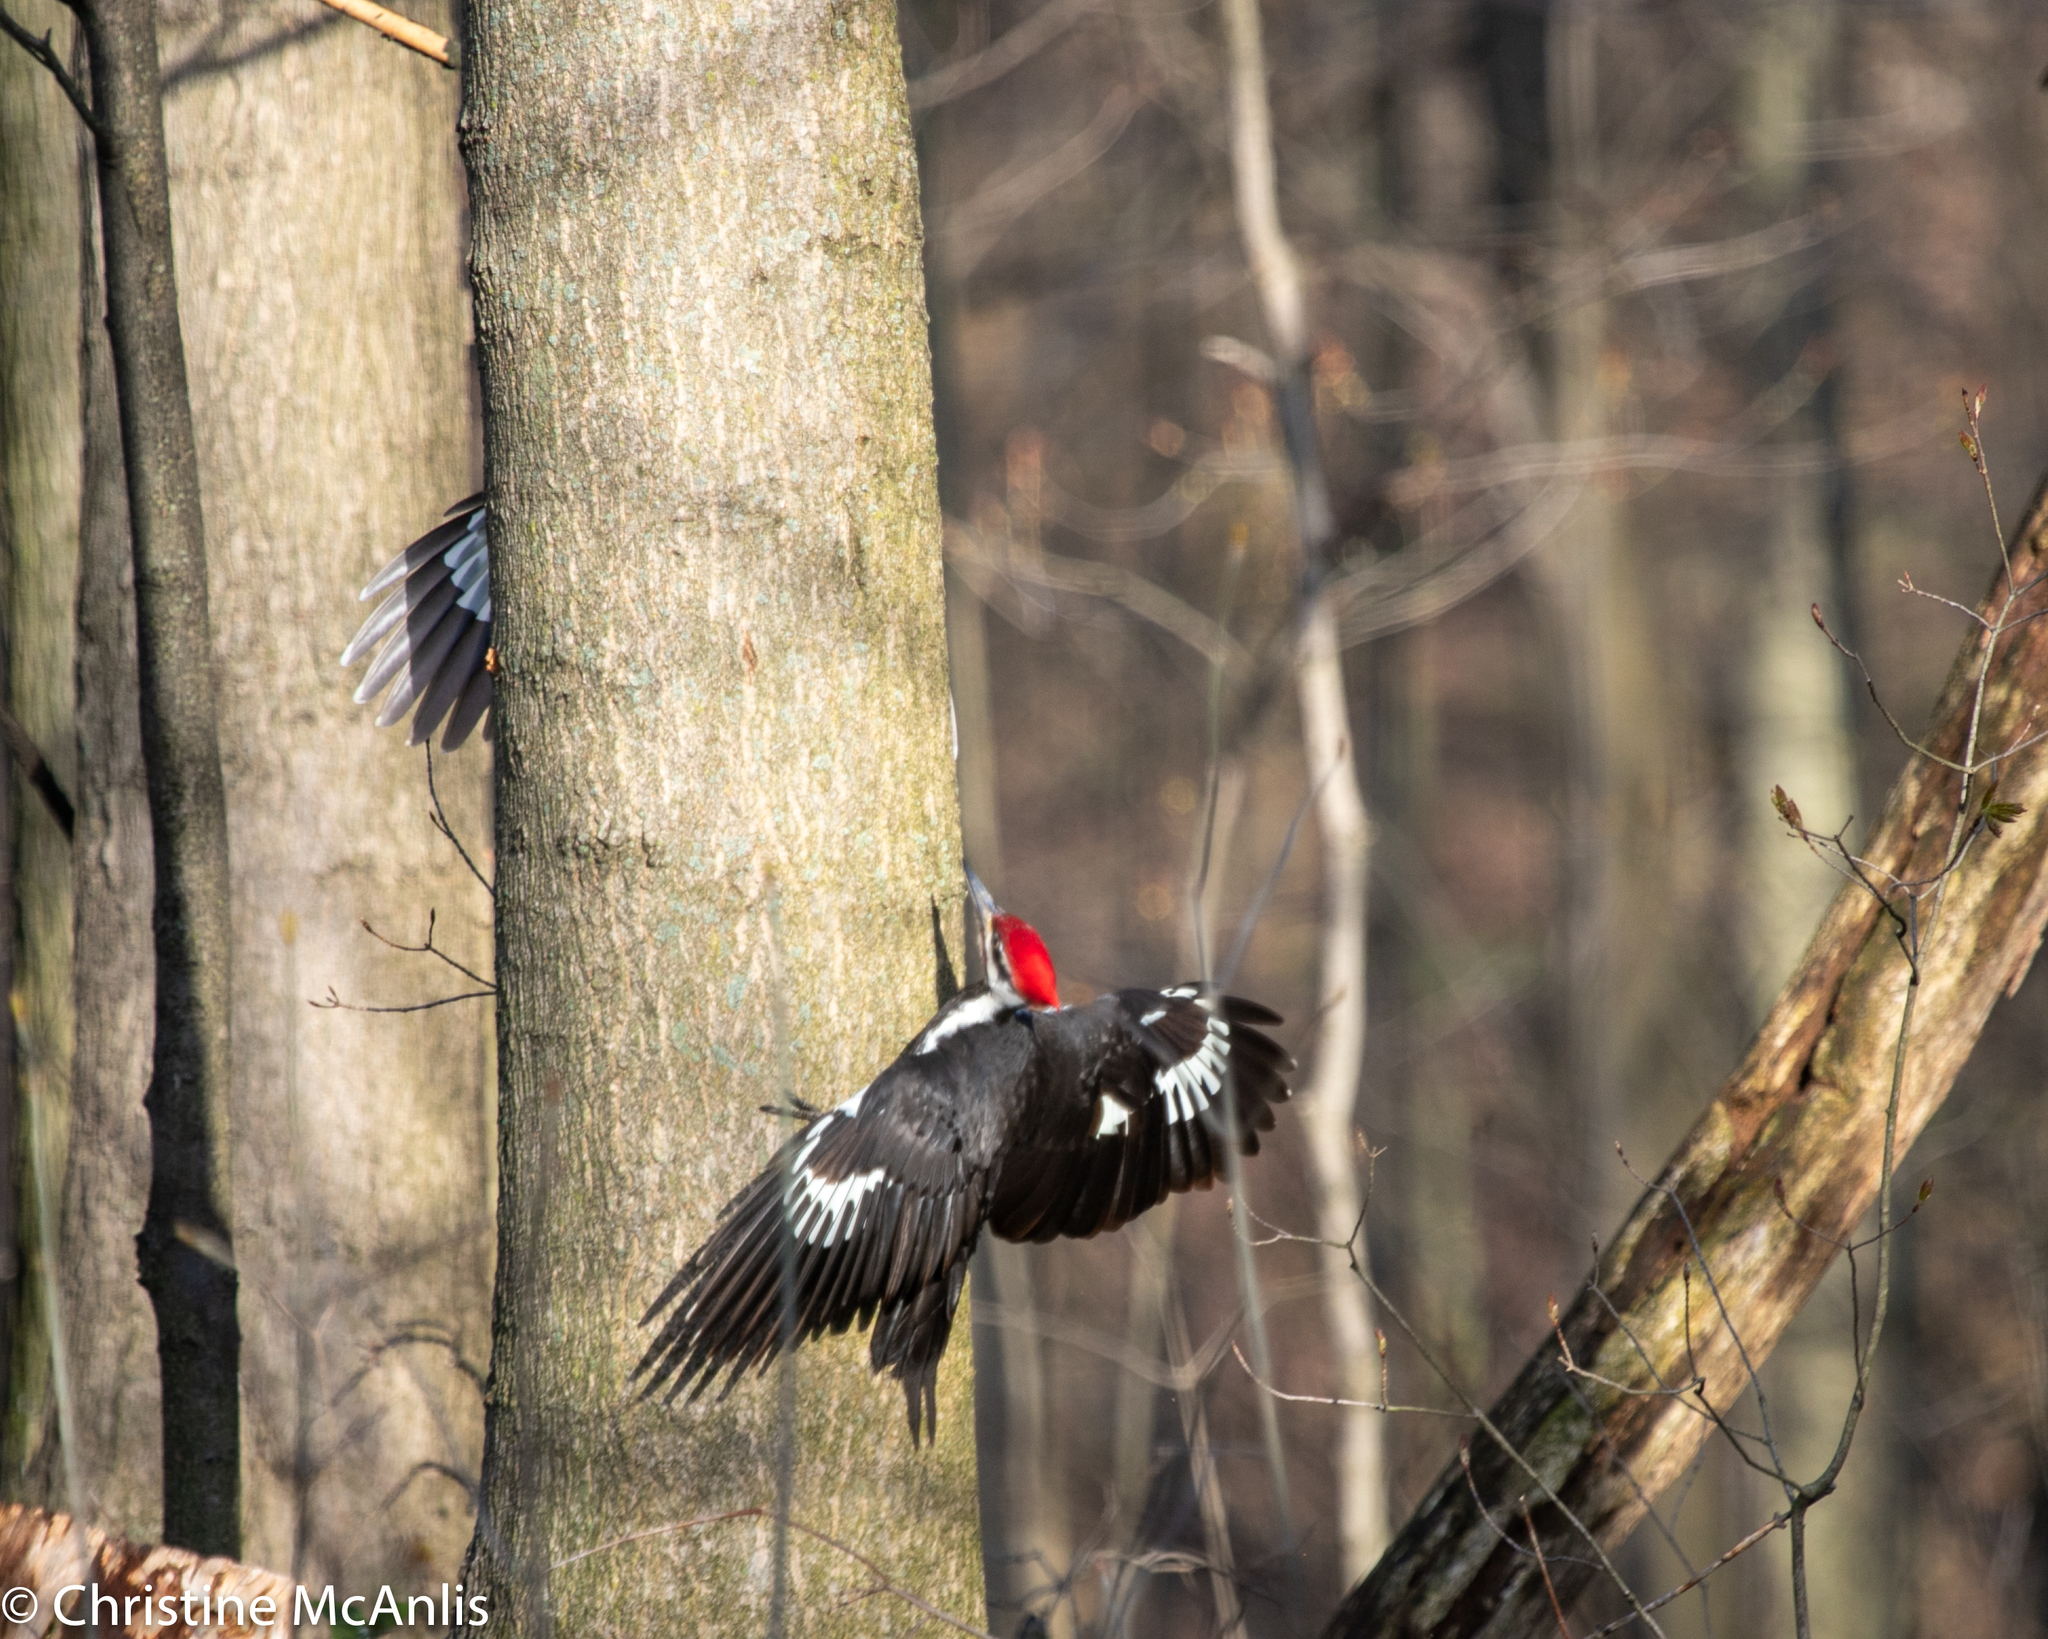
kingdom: Animalia
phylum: Chordata
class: Aves
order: Piciformes
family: Picidae
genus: Dryocopus
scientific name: Dryocopus pileatus
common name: Pileated woodpecker
